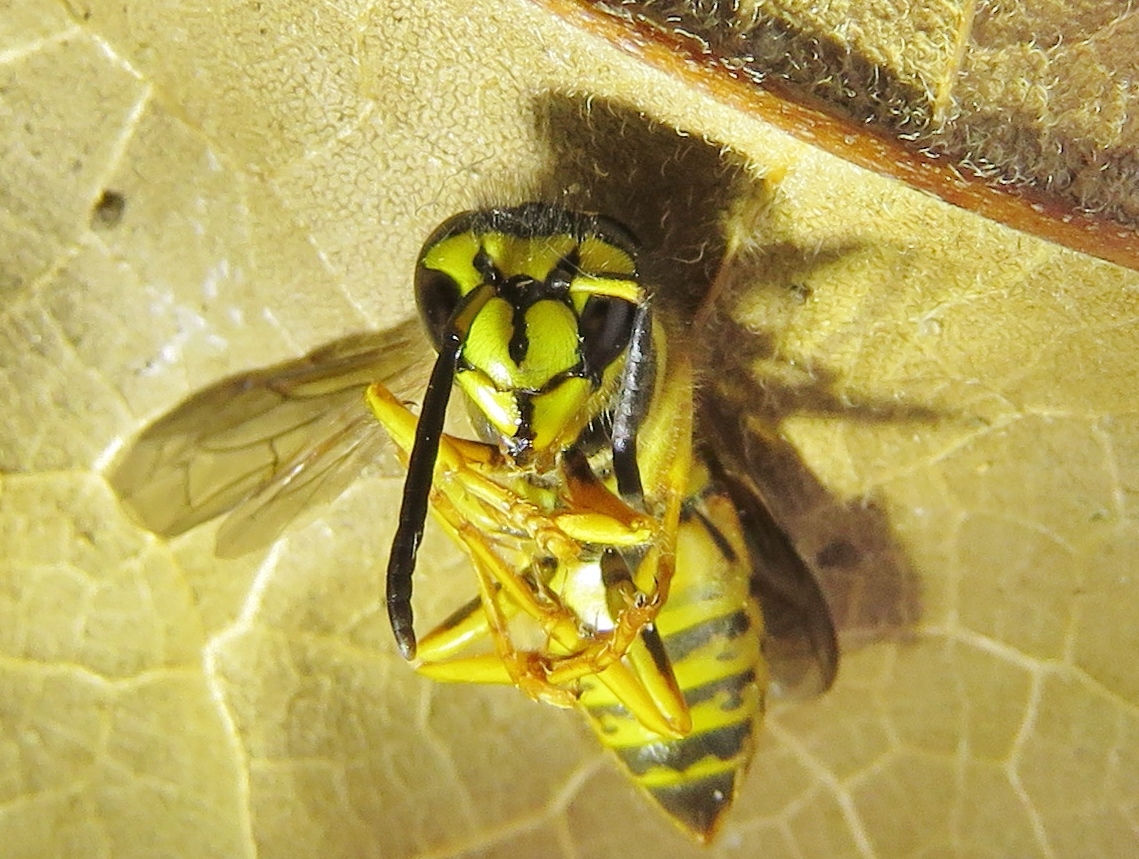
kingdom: Animalia
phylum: Arthropoda
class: Insecta
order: Hymenoptera
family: Vespidae
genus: Vespula
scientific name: Vespula squamosa
